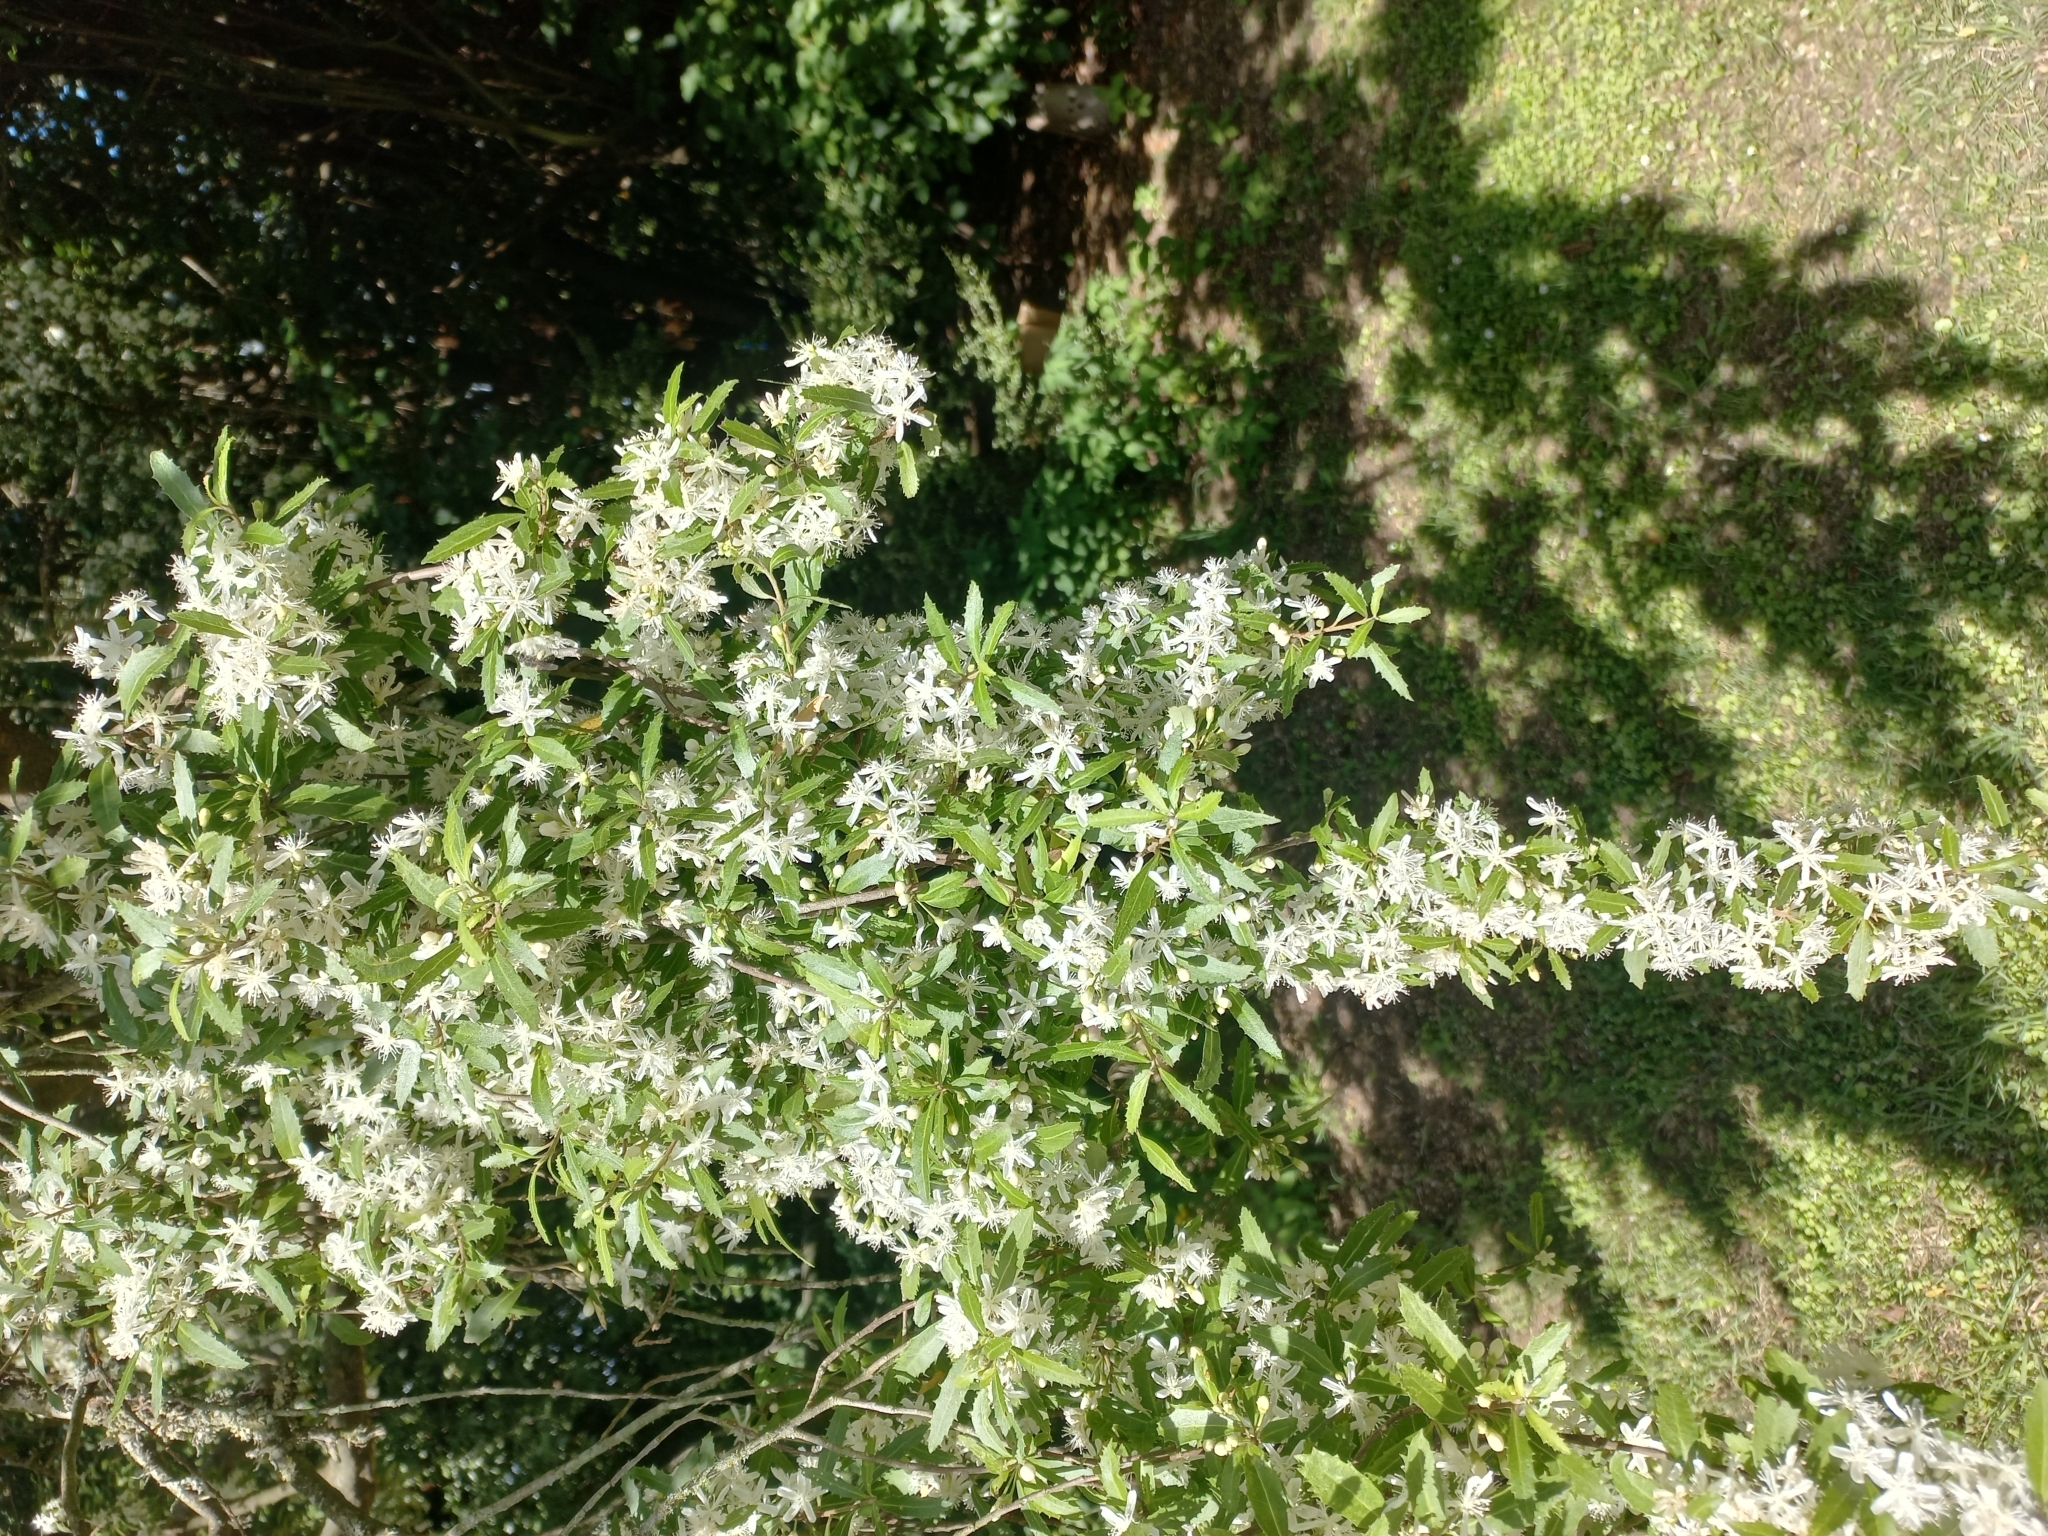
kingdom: Plantae
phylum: Tracheophyta
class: Magnoliopsida
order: Malvales
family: Malvaceae
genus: Hoheria
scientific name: Hoheria angustifolia
